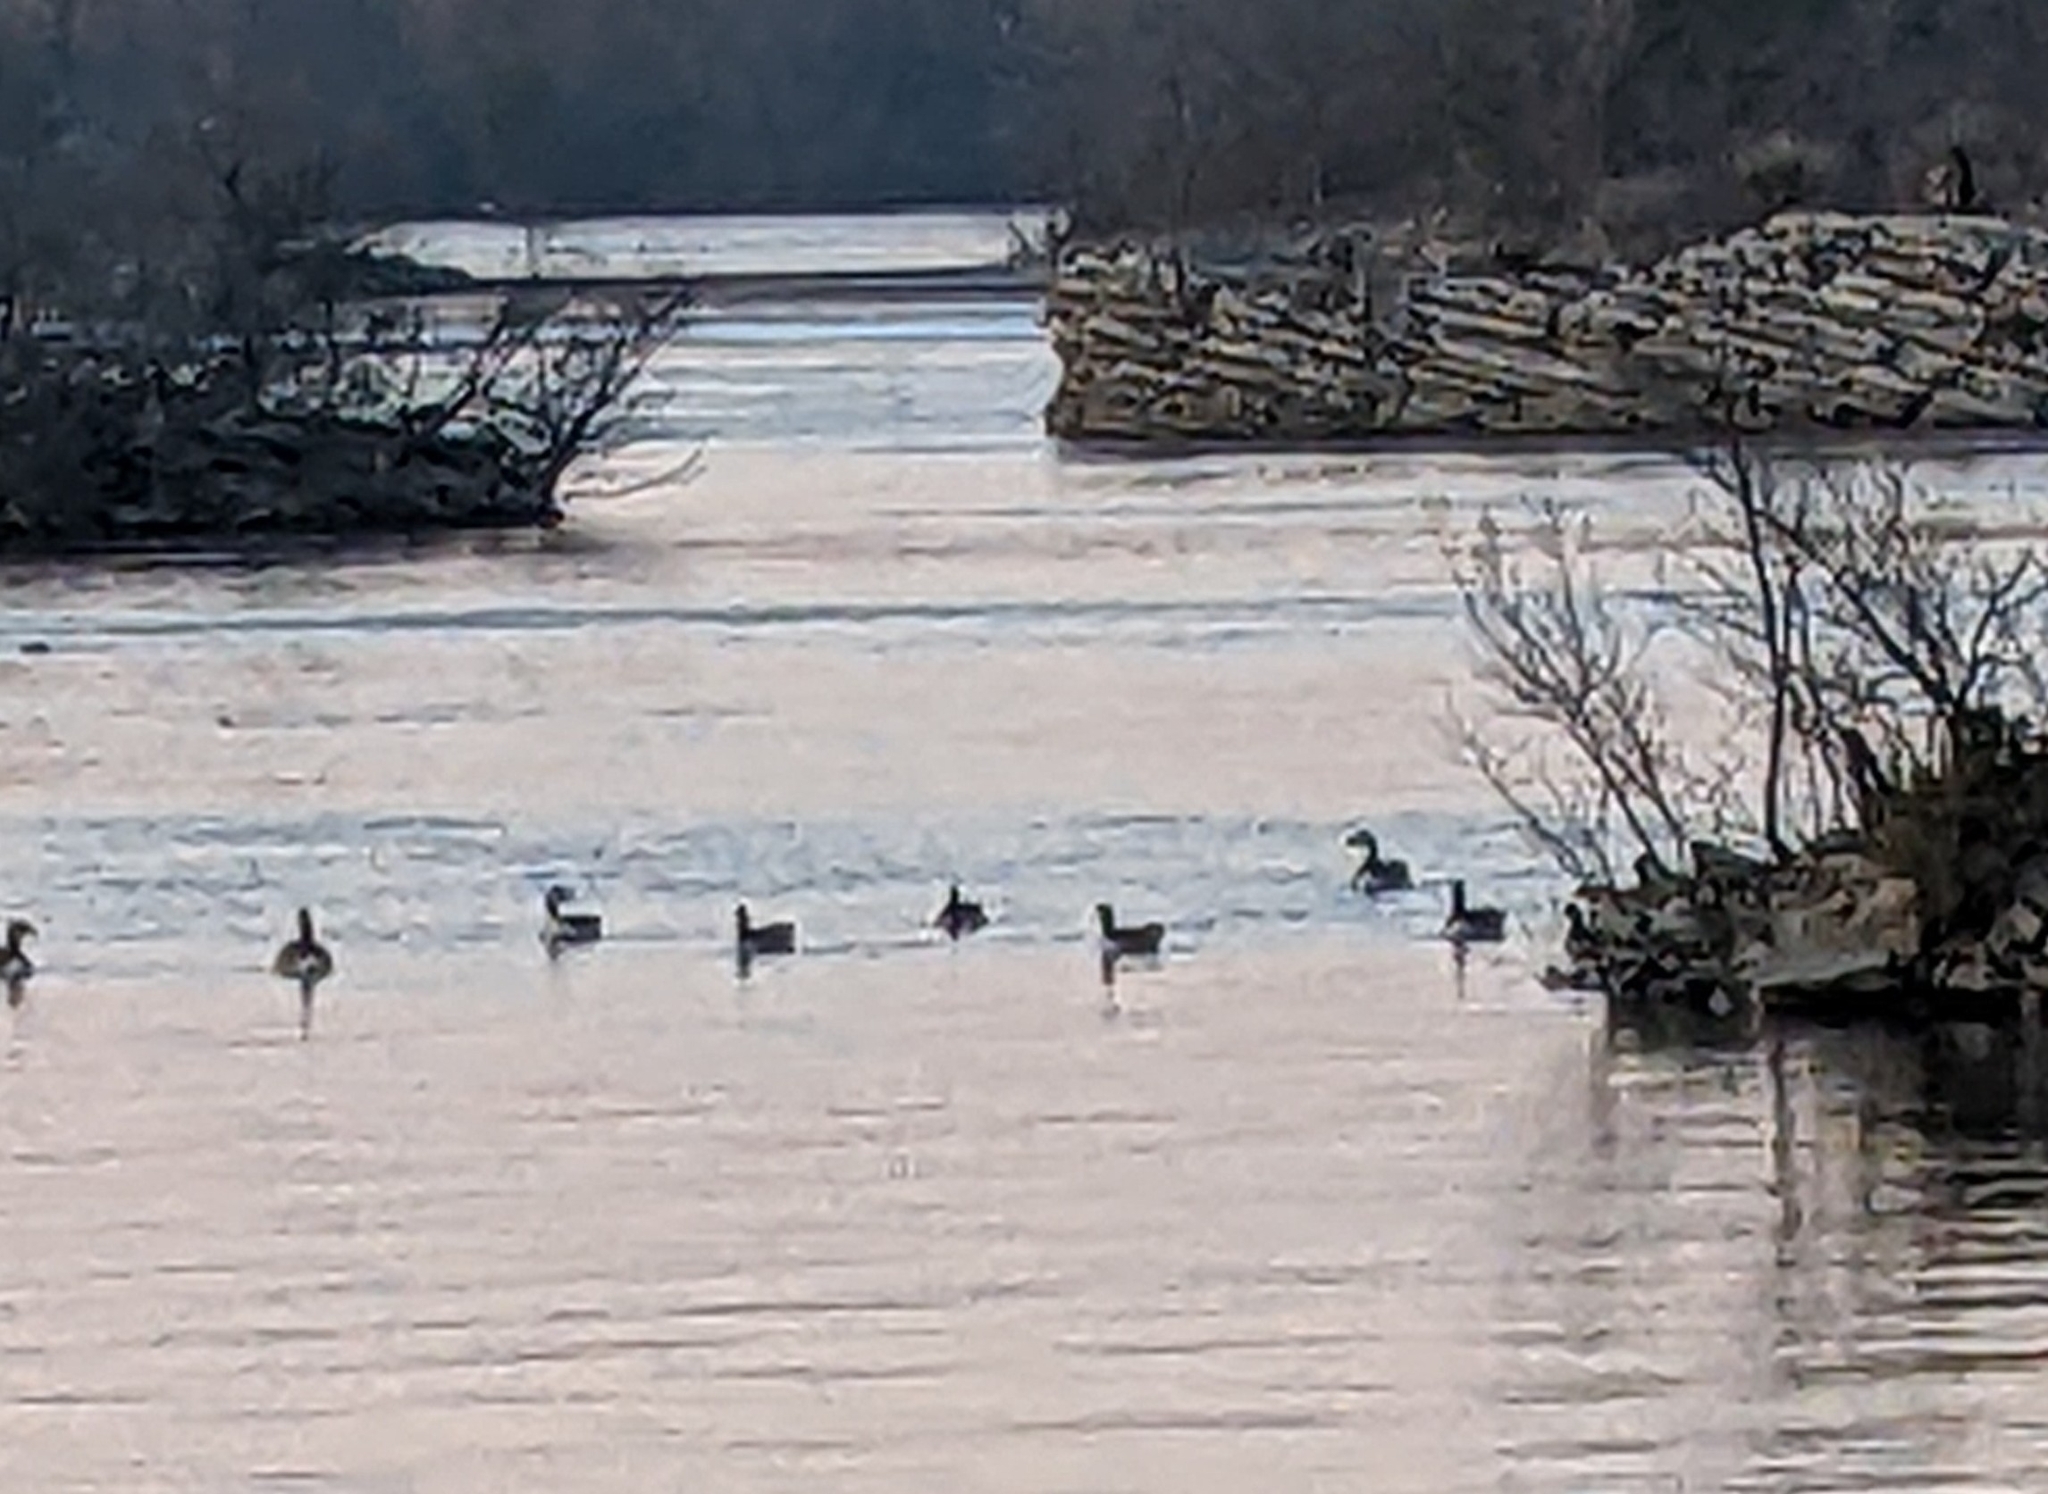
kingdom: Animalia
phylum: Chordata
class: Aves
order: Anseriformes
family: Anatidae
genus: Branta
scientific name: Branta canadensis
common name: Canada goose
